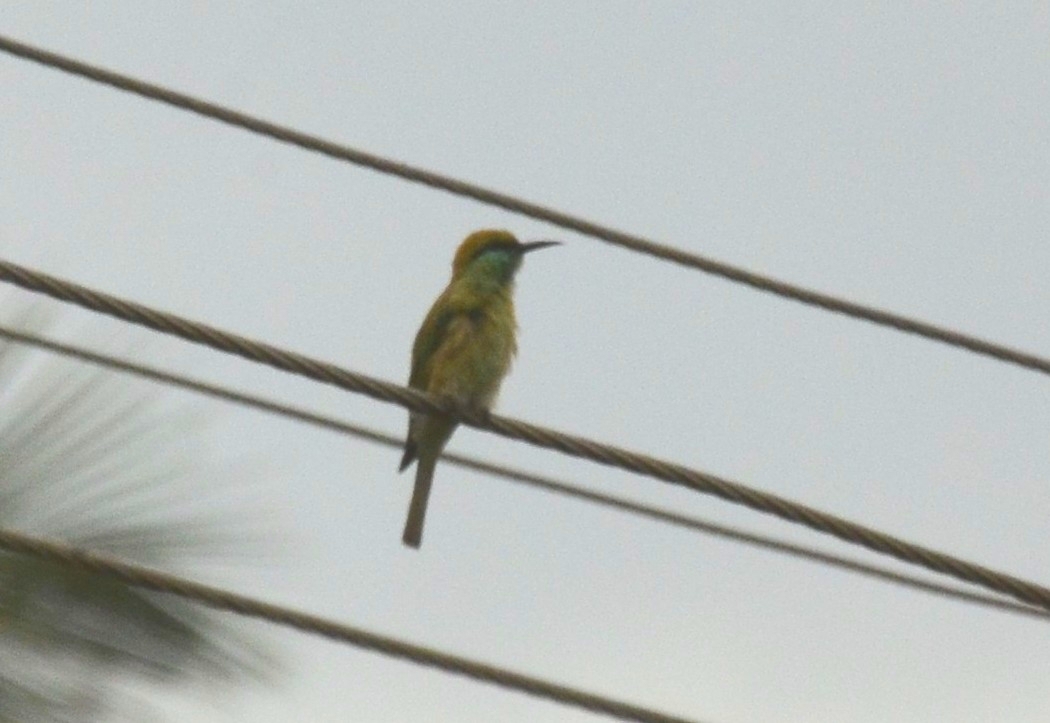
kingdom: Animalia
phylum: Chordata
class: Aves
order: Coraciiformes
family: Meropidae
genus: Merops
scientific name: Merops orientalis
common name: Green bee-eater
